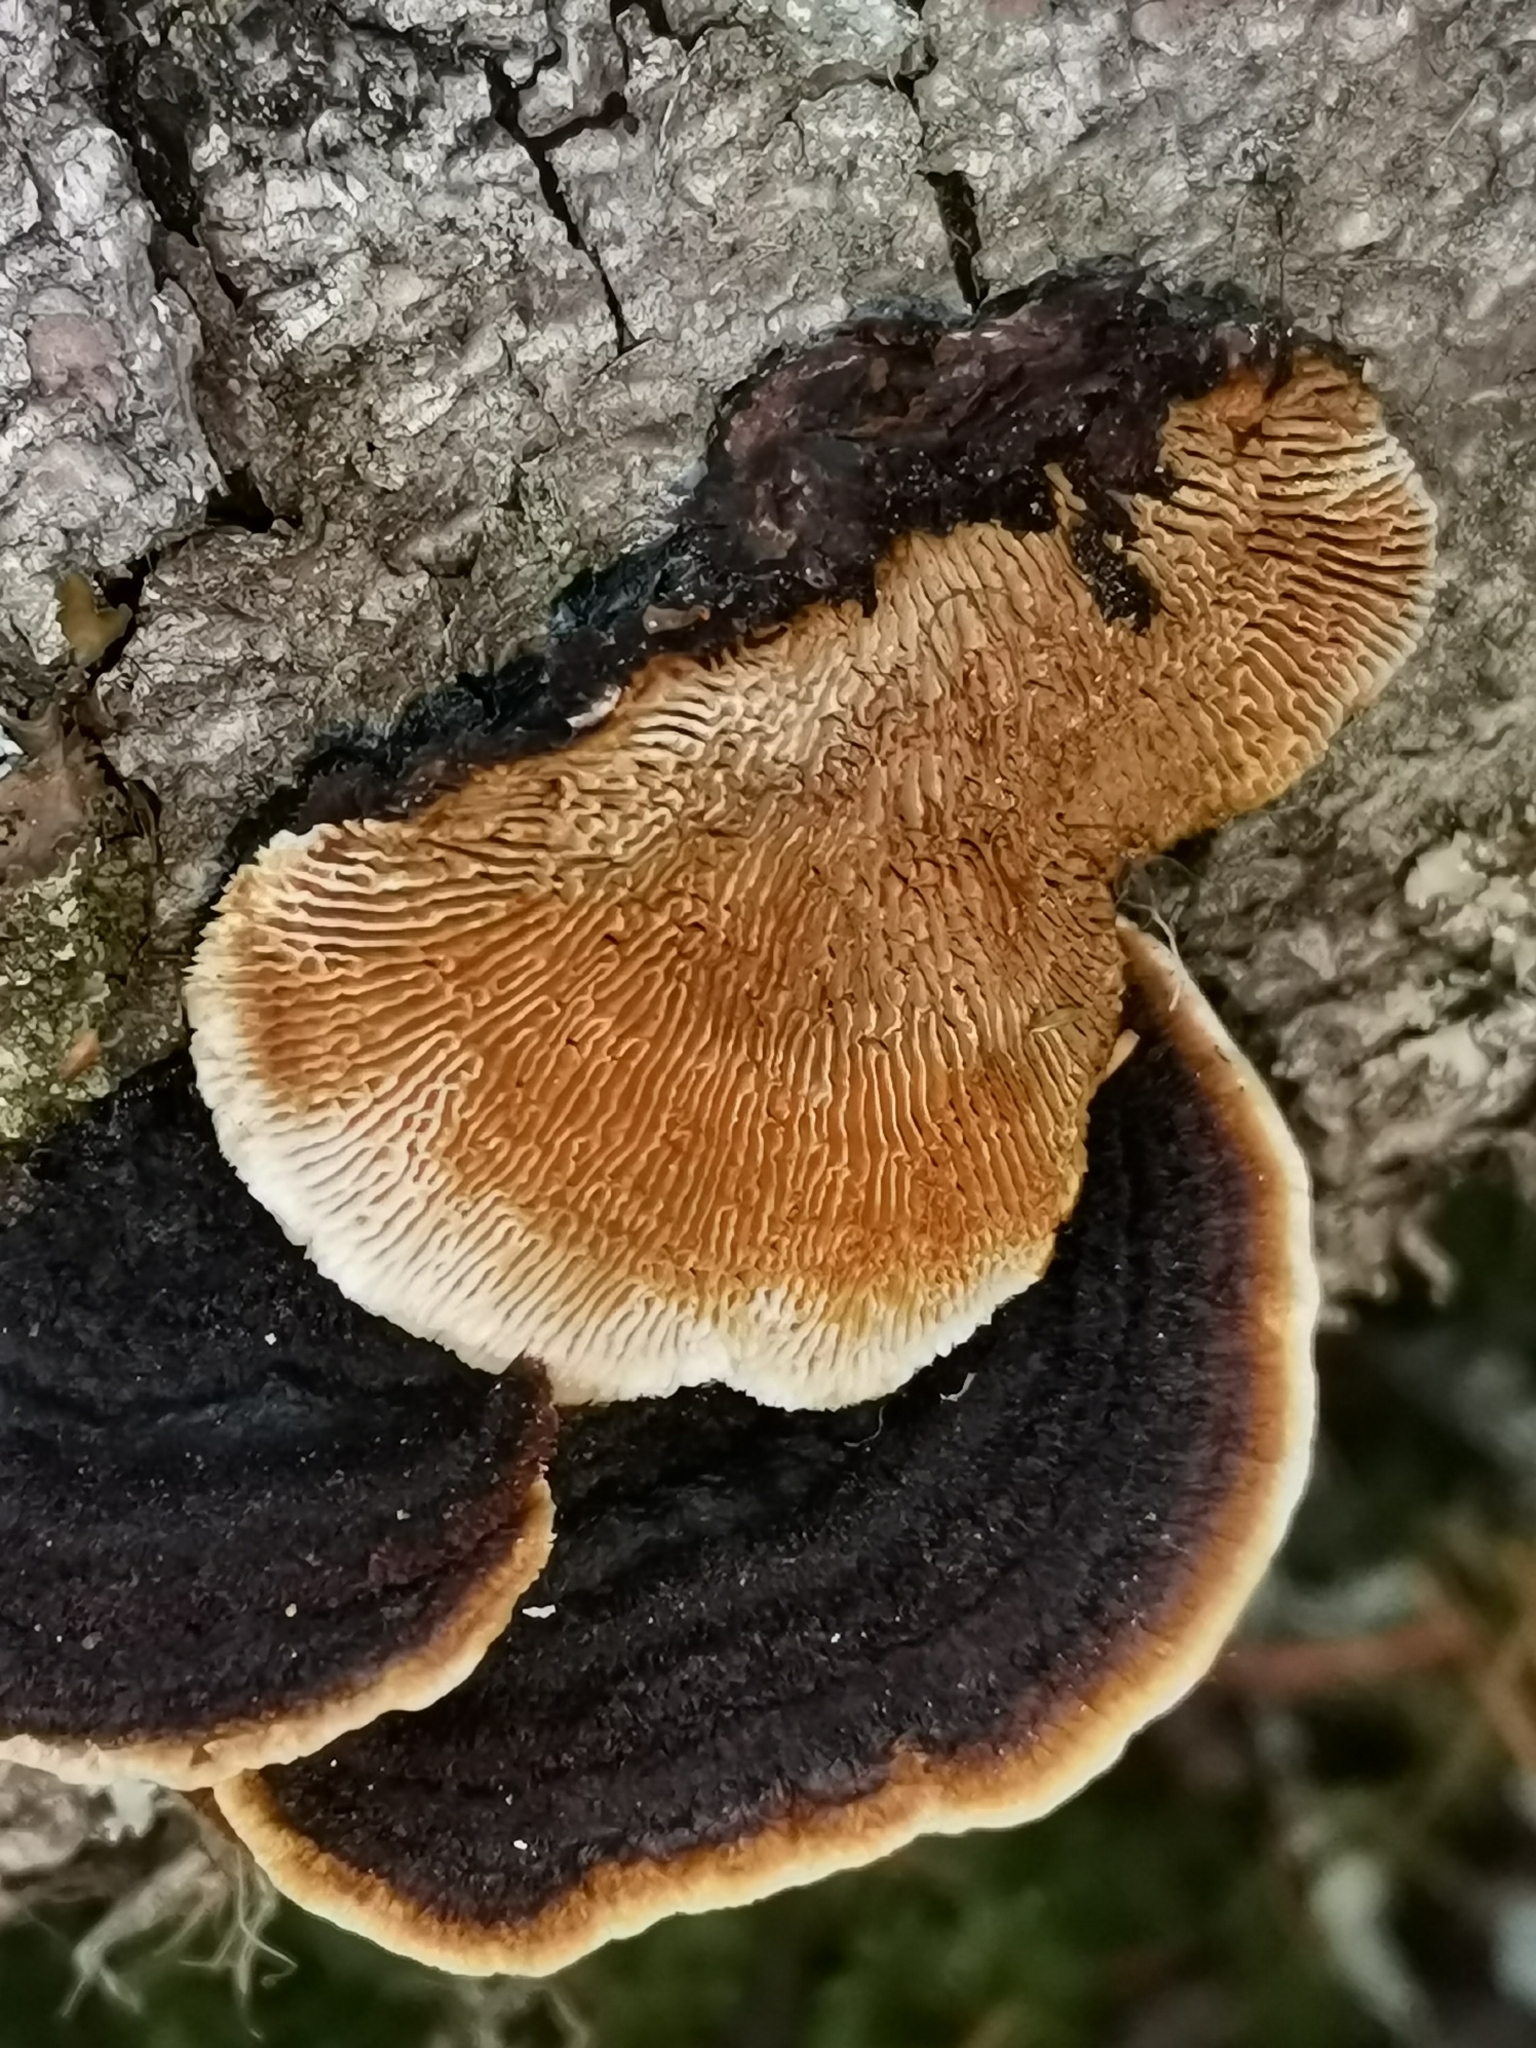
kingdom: Fungi
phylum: Basidiomycota
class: Agaricomycetes
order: Gloeophyllales
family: Gloeophyllaceae
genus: Gloeophyllum
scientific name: Gloeophyllum sepiarium
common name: Conifer mazegill
